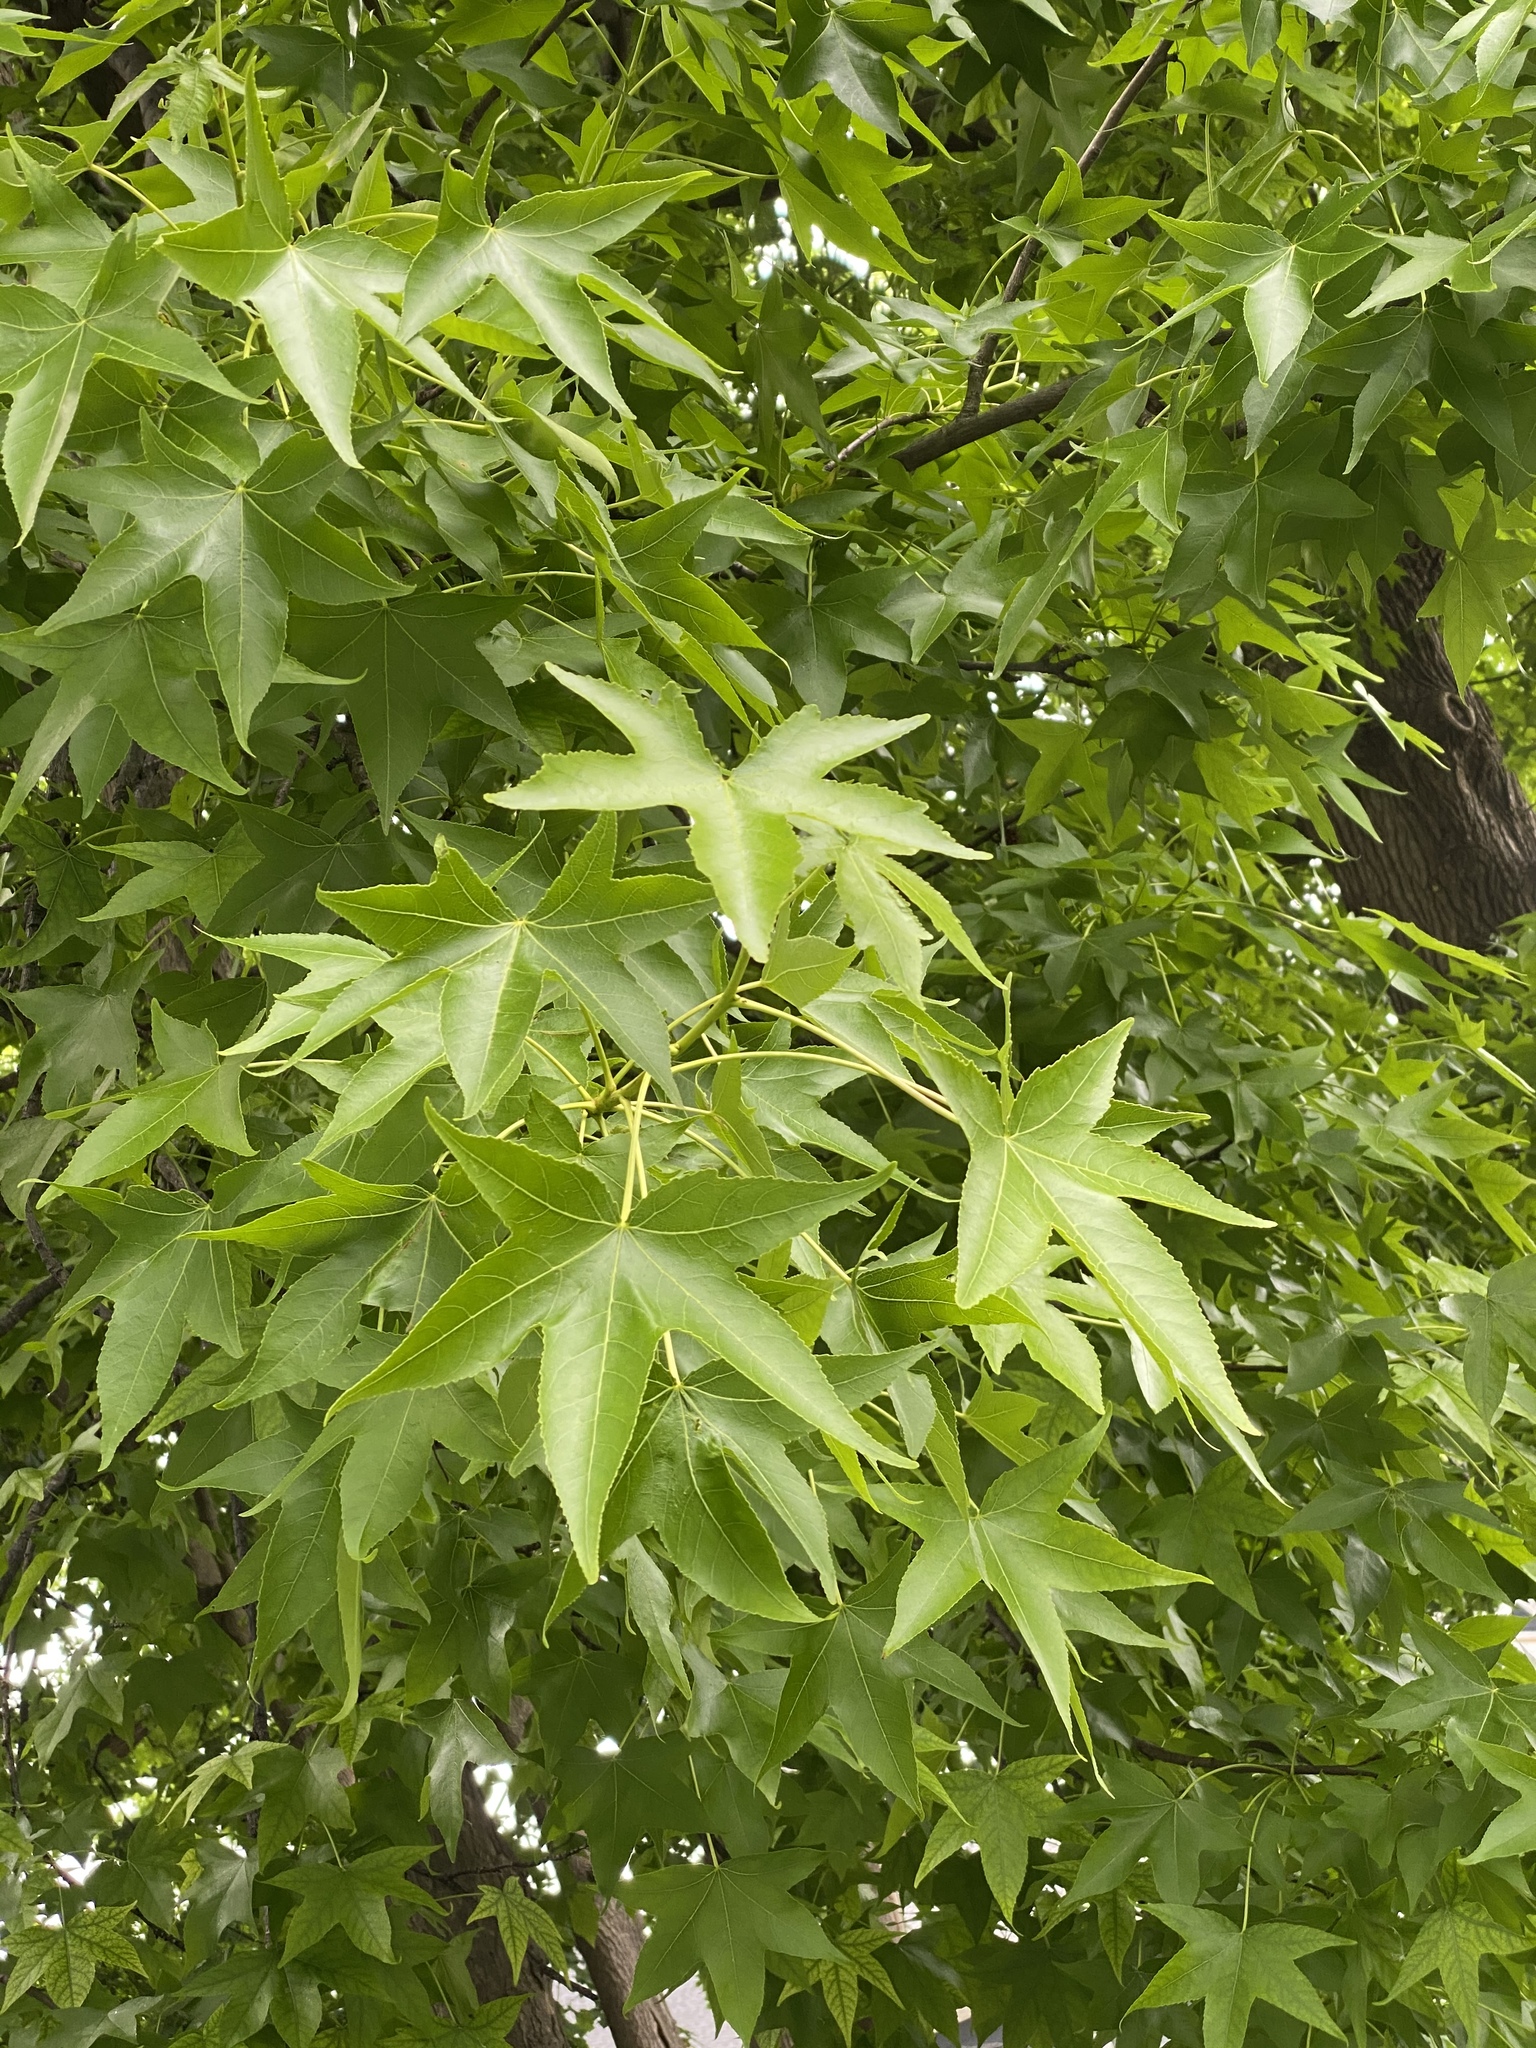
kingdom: Plantae
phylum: Tracheophyta
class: Magnoliopsida
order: Saxifragales
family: Altingiaceae
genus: Liquidambar
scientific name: Liquidambar styraciflua
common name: Sweet gum
